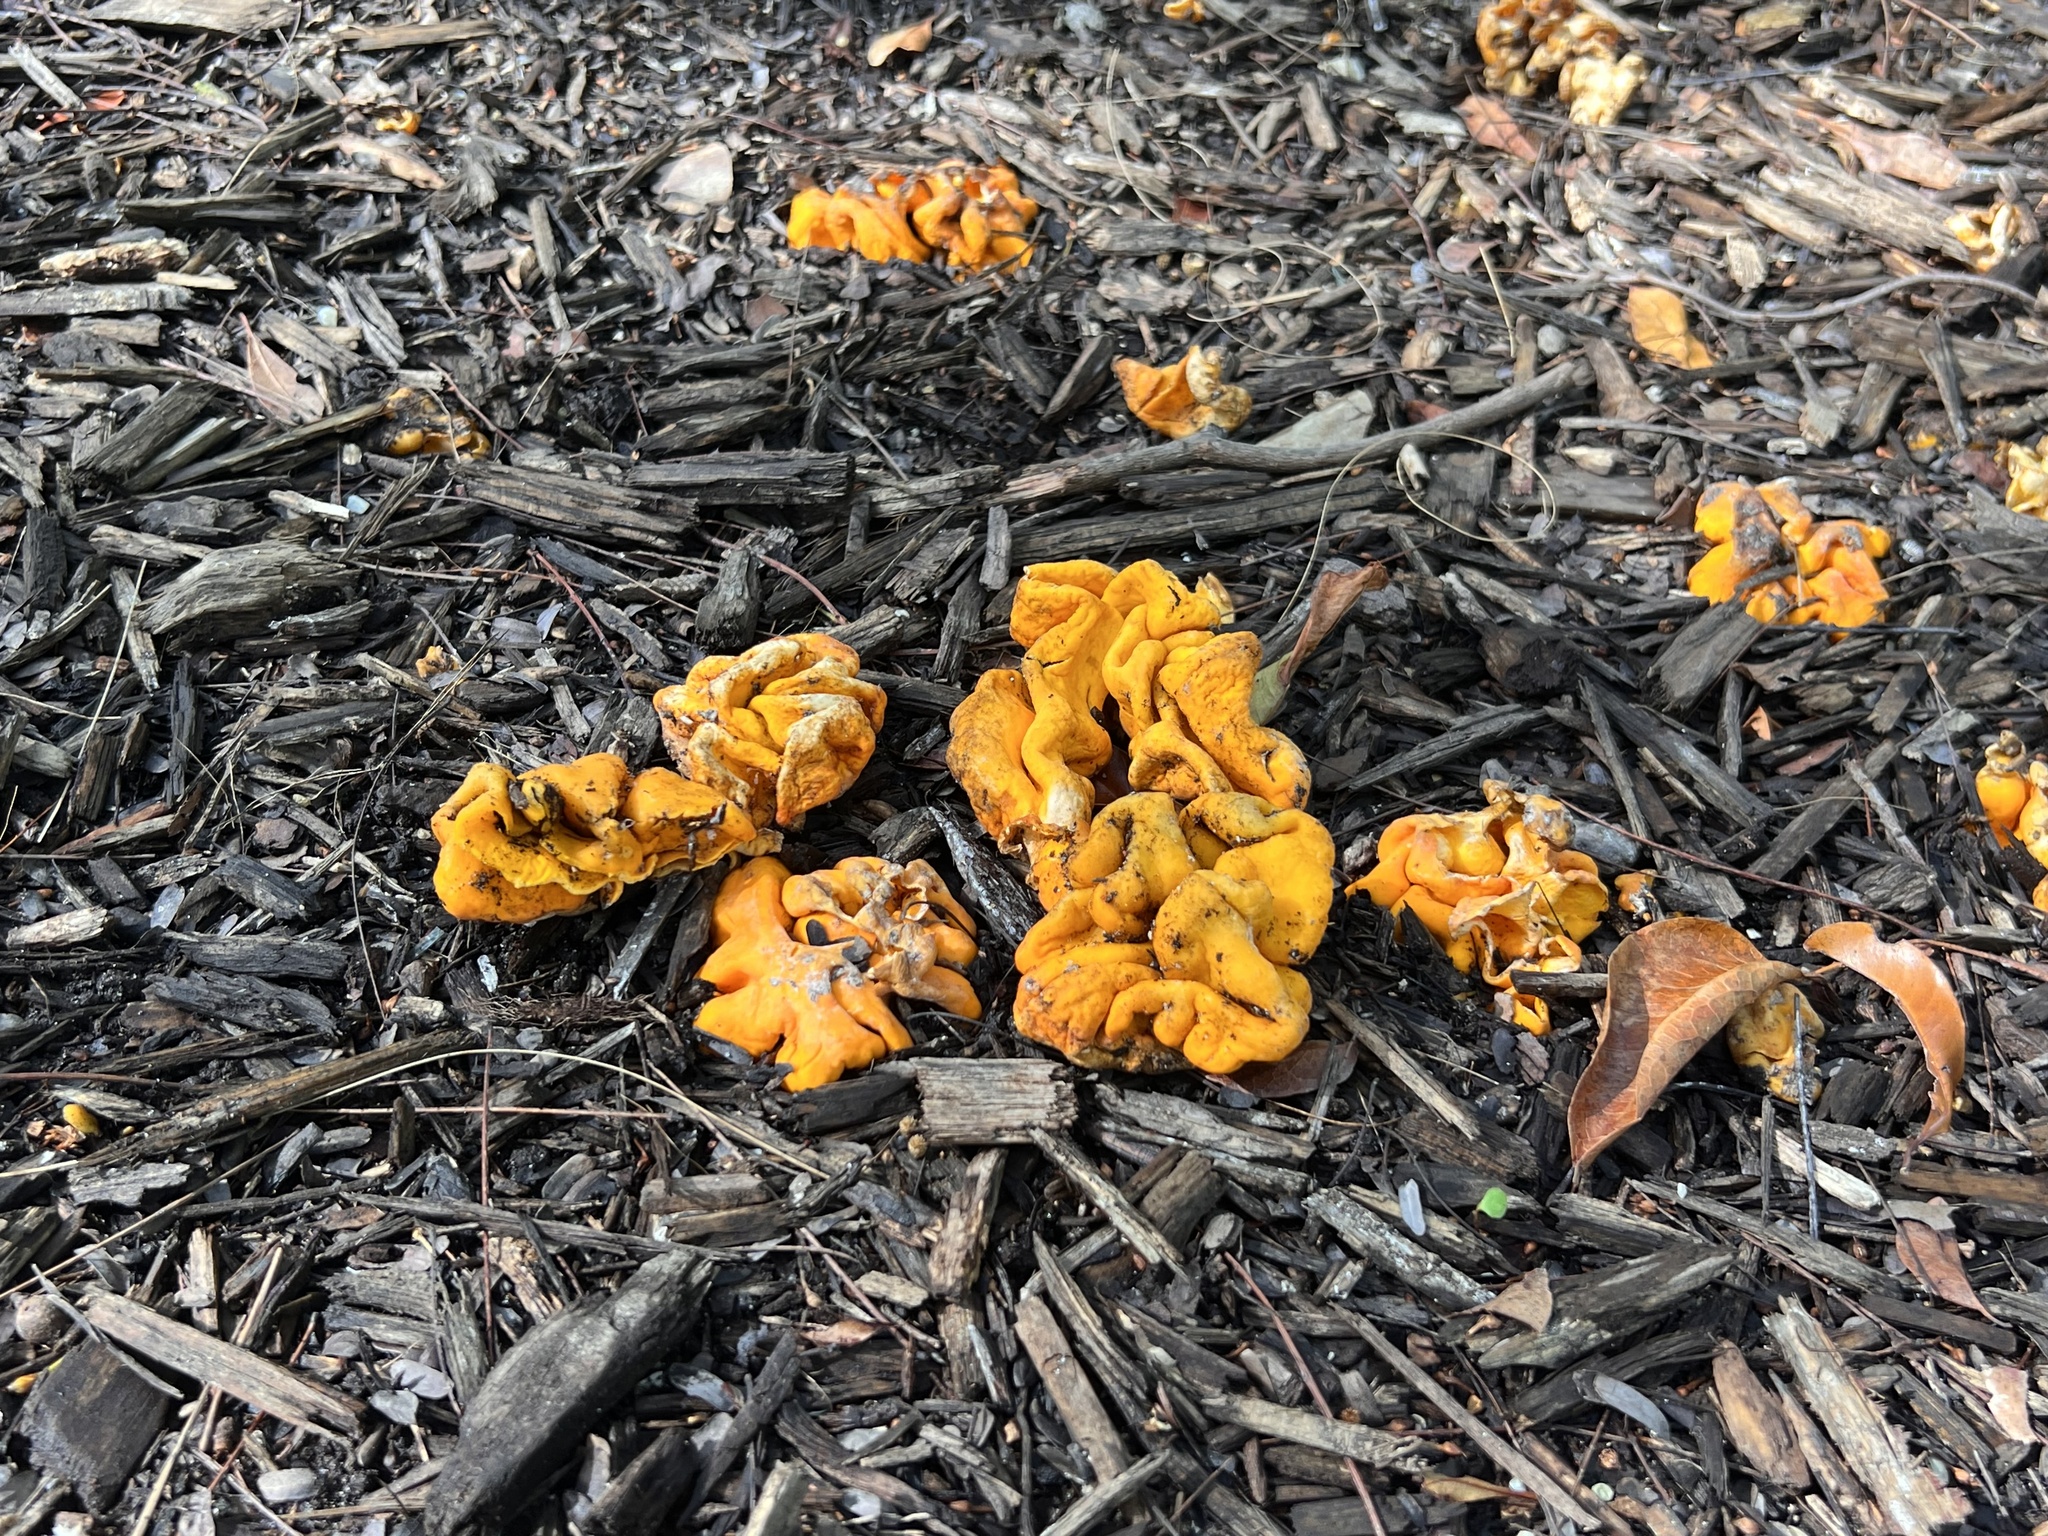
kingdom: Fungi
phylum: Ascomycota
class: Pezizomycetes
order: Pezizales
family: Glaziellaceae
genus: Glaziella
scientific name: Glaziella aurantiaca
